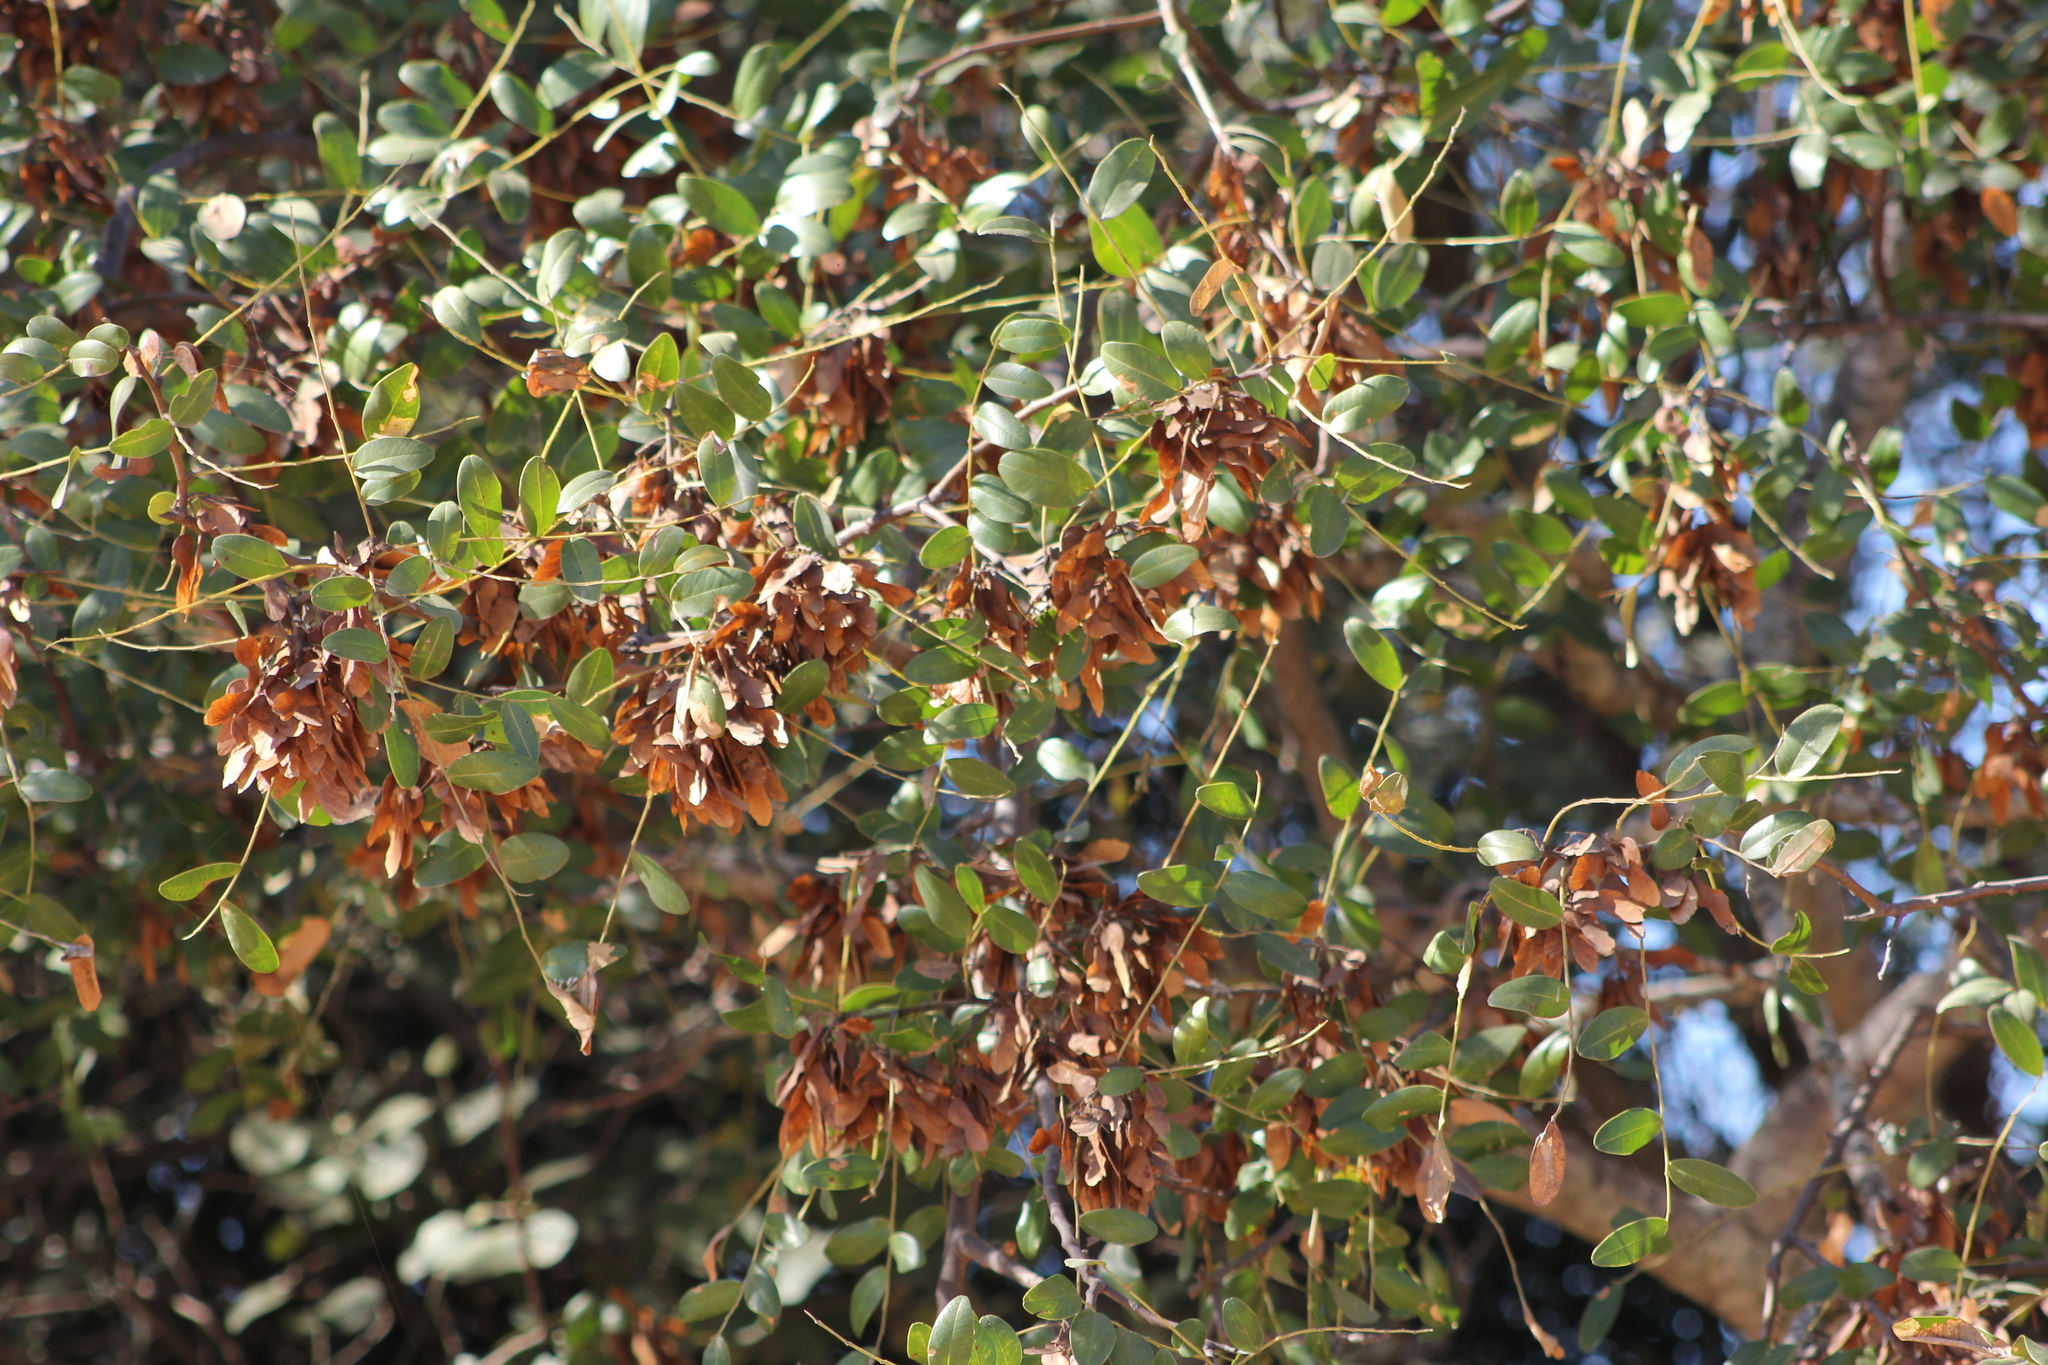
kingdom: Plantae
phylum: Tracheophyta
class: Magnoliopsida
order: Fabales
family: Fabaceae
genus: Pterogyne
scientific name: Pterogyne nitens
